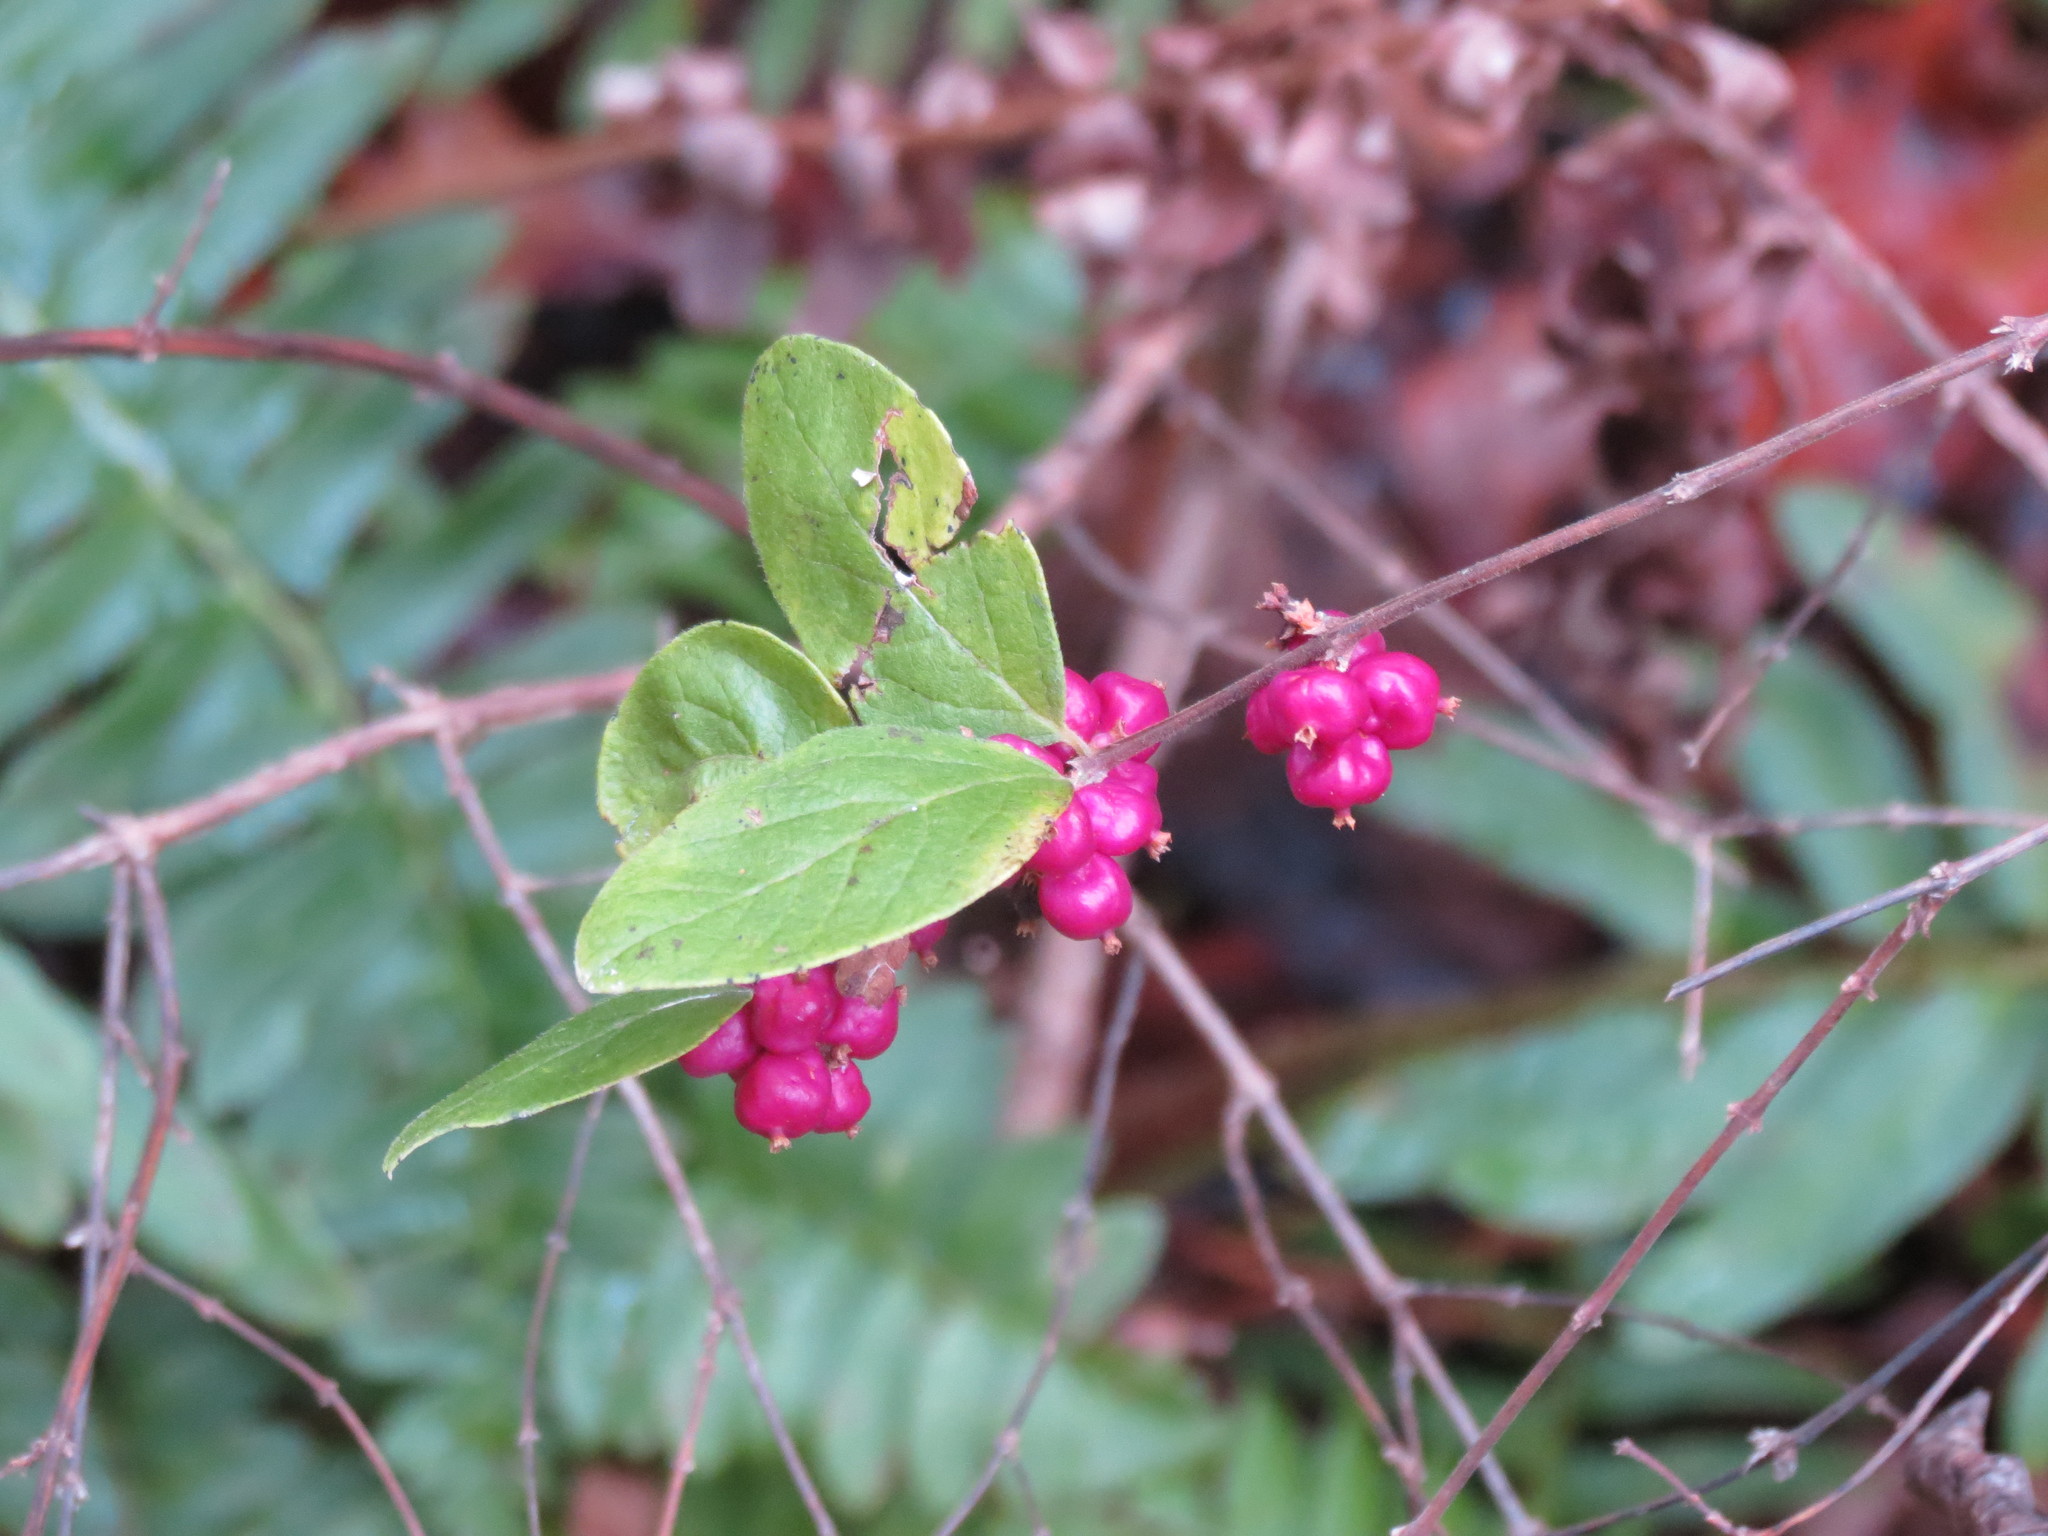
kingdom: Plantae
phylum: Tracheophyta
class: Magnoliopsida
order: Dipsacales
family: Caprifoliaceae
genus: Symphoricarpos
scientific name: Symphoricarpos orbiculatus
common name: Coralberry
